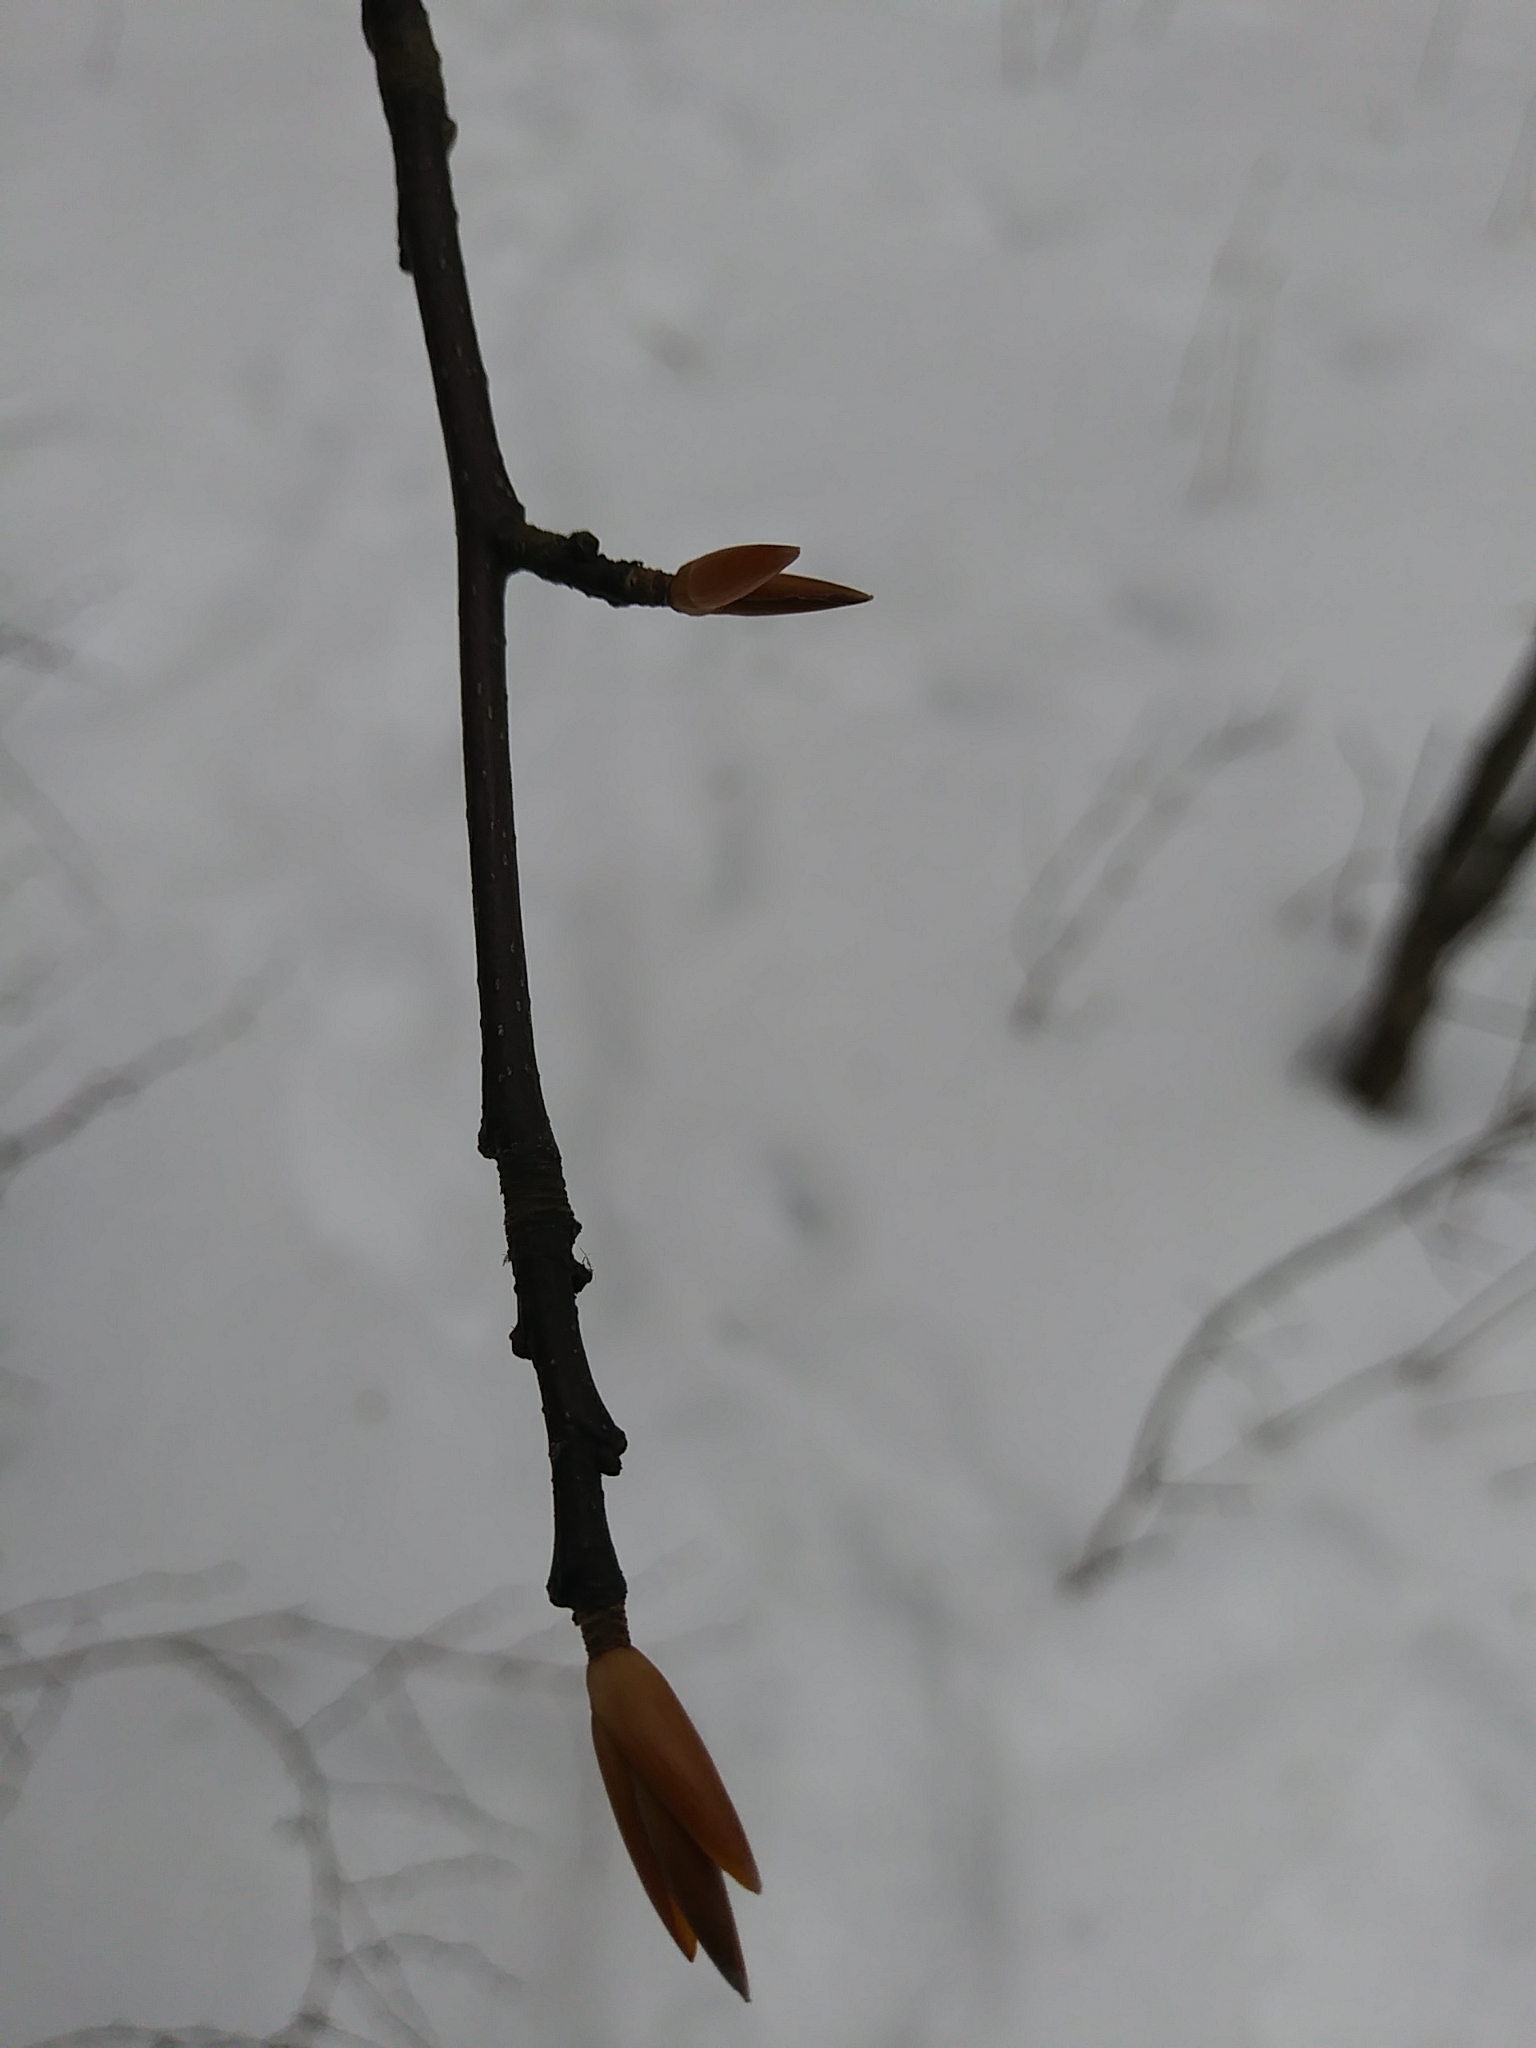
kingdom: Plantae
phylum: Tracheophyta
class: Magnoliopsida
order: Fagales
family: Fagaceae
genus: Fagus
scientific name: Fagus grandifolia
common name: American beech
